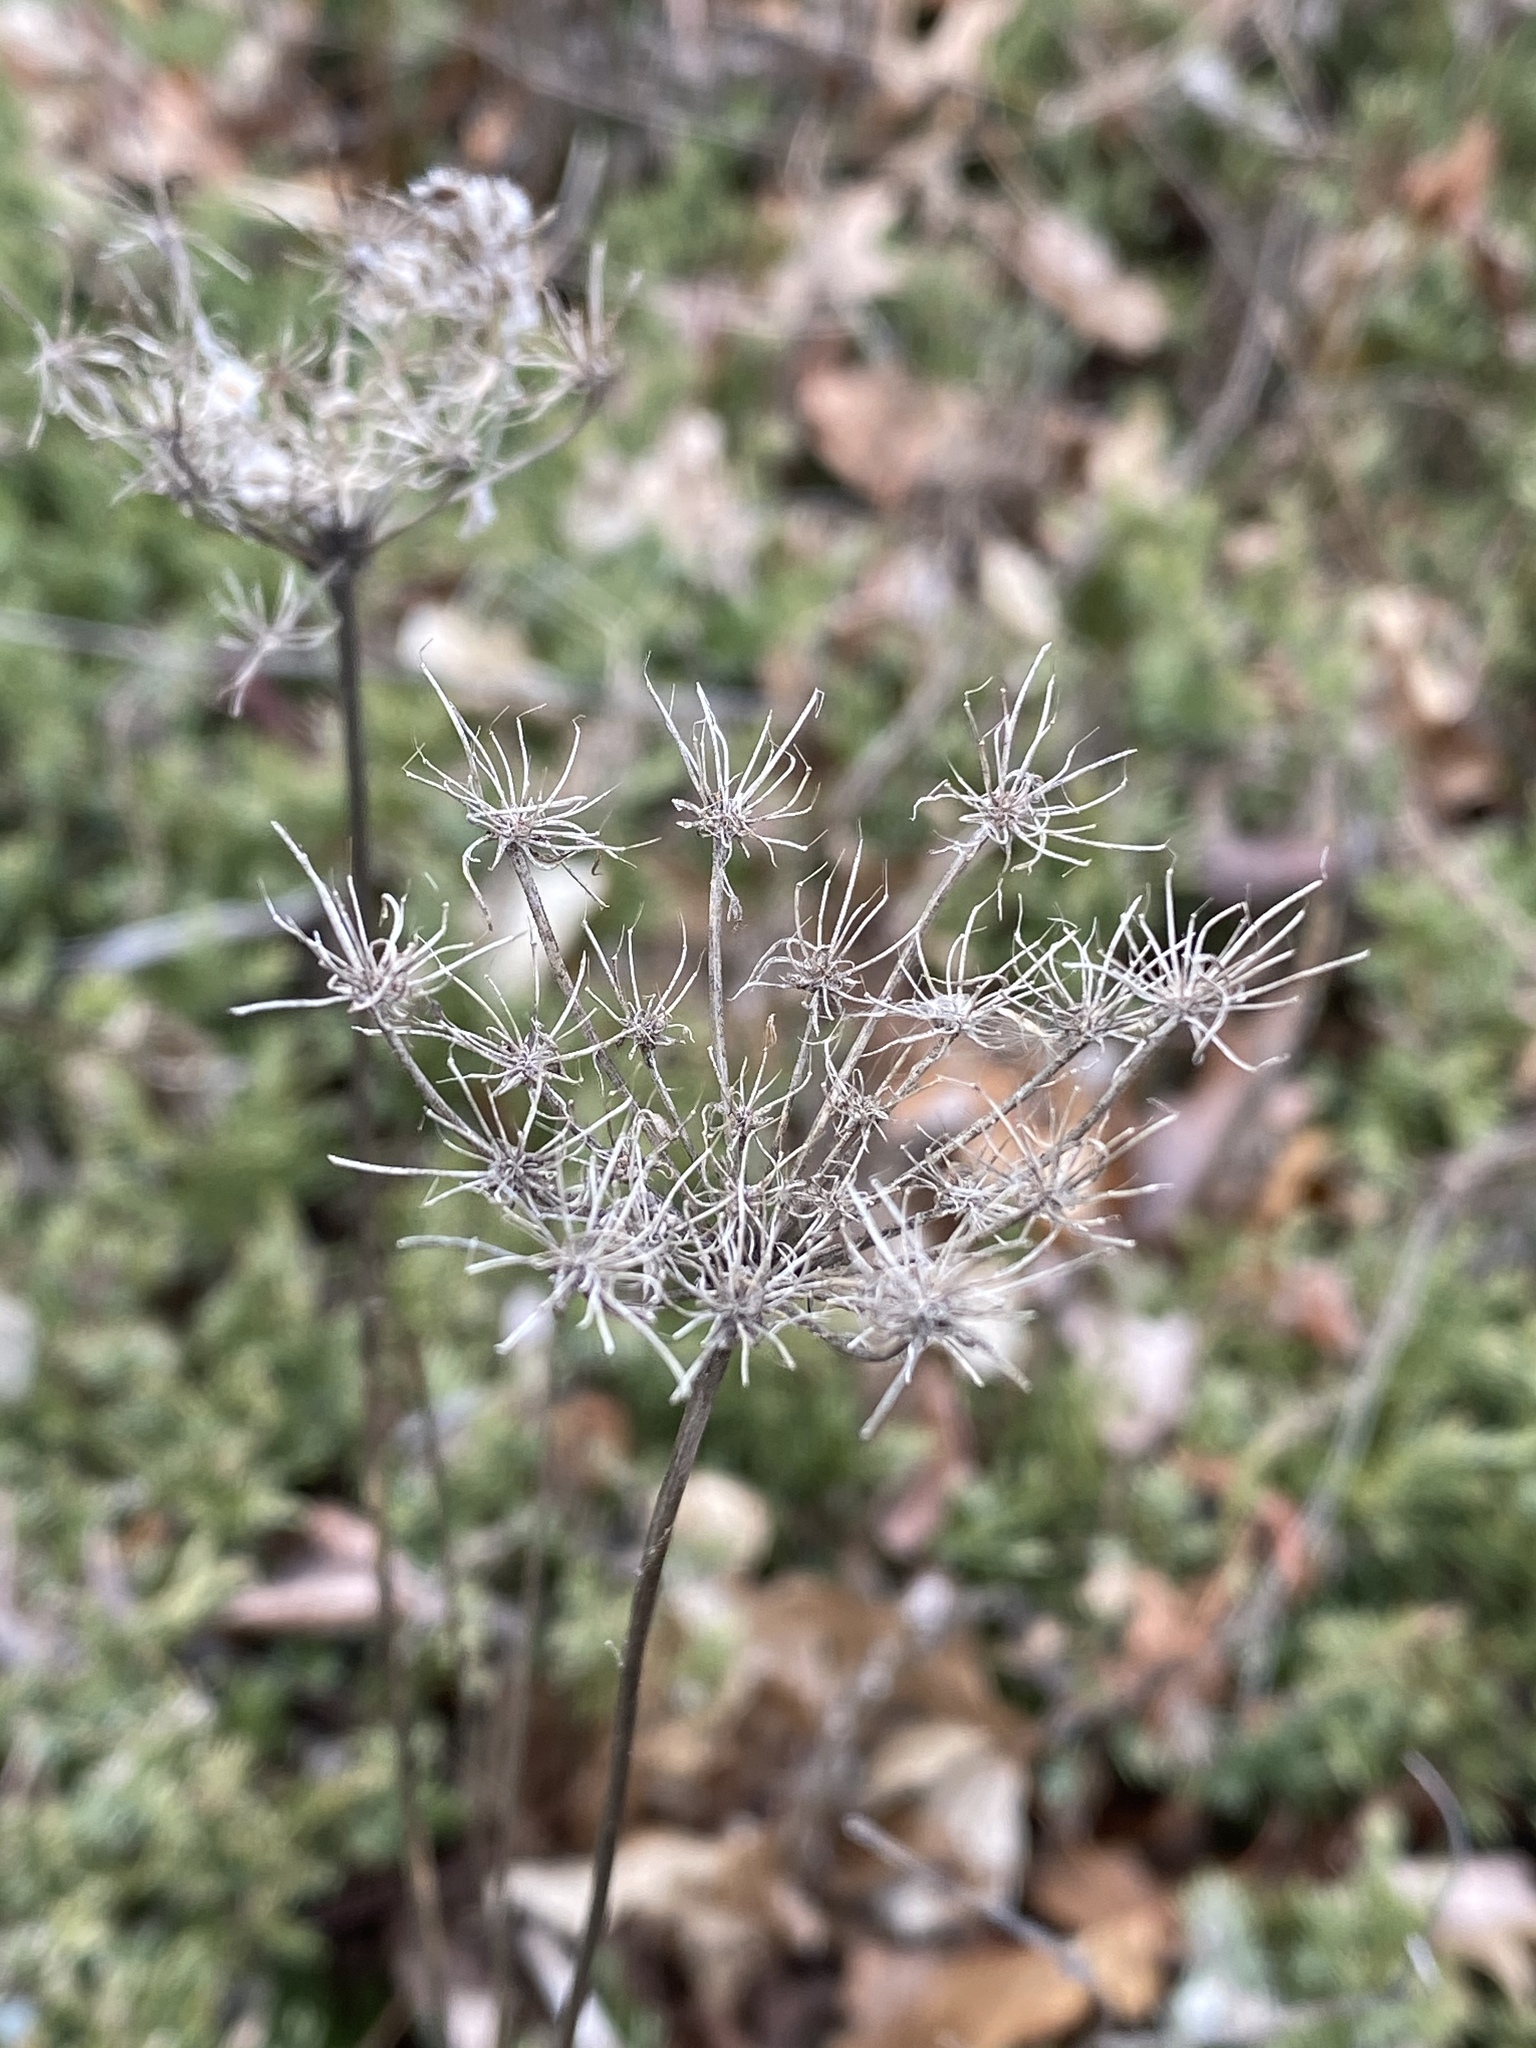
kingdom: Plantae
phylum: Tracheophyta
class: Magnoliopsida
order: Apiales
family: Apiaceae
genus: Daucus
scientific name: Daucus carota
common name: Wild carrot
